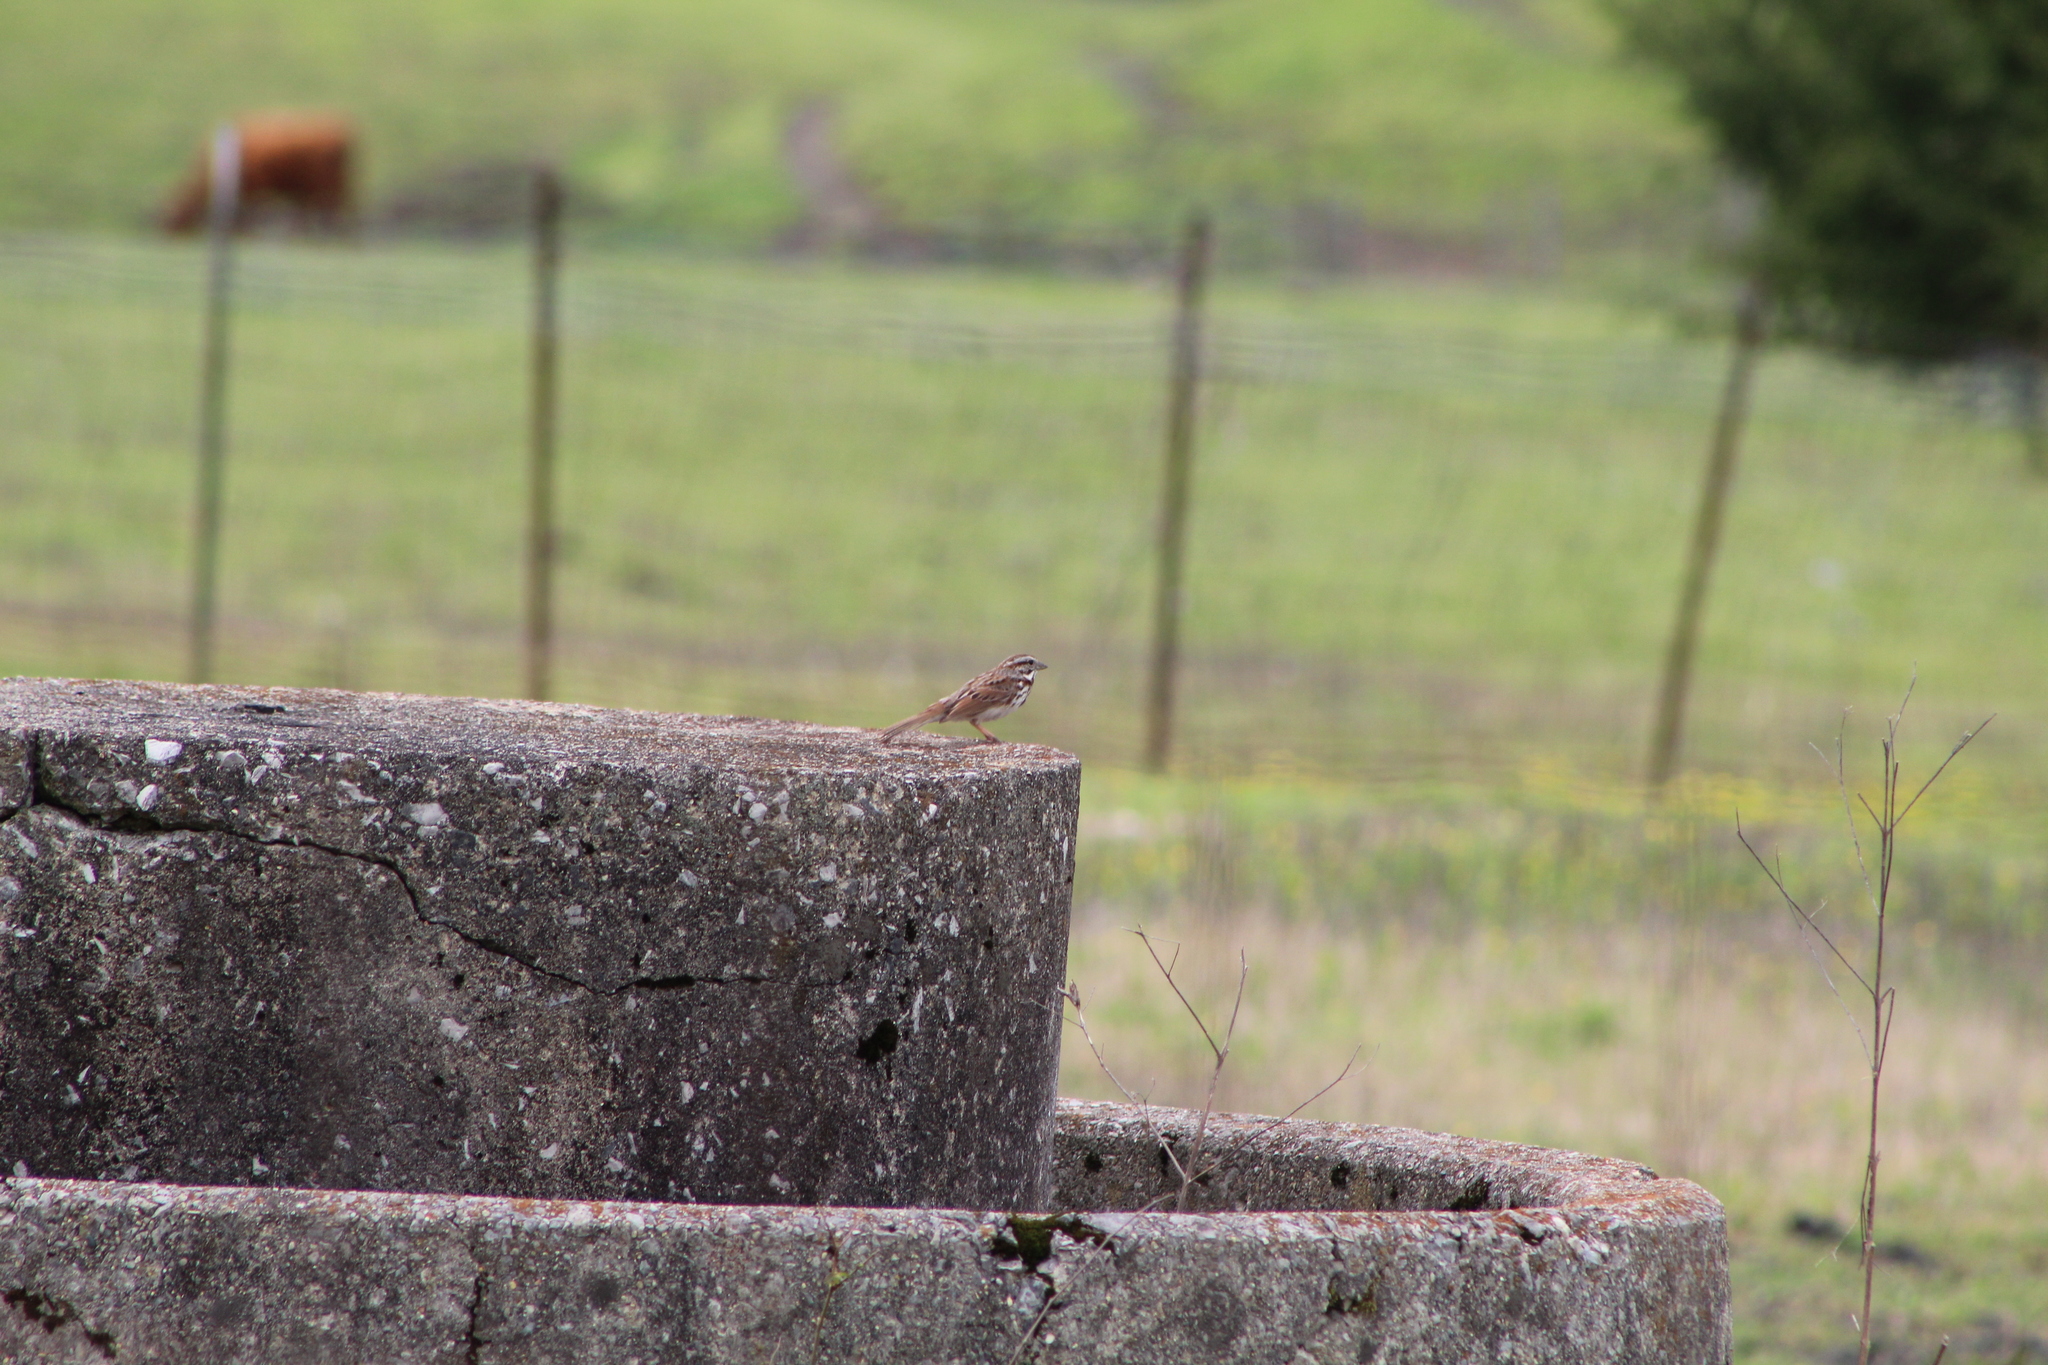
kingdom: Animalia
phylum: Chordata
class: Aves
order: Passeriformes
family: Passerellidae
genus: Melospiza
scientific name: Melospiza melodia
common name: Song sparrow
